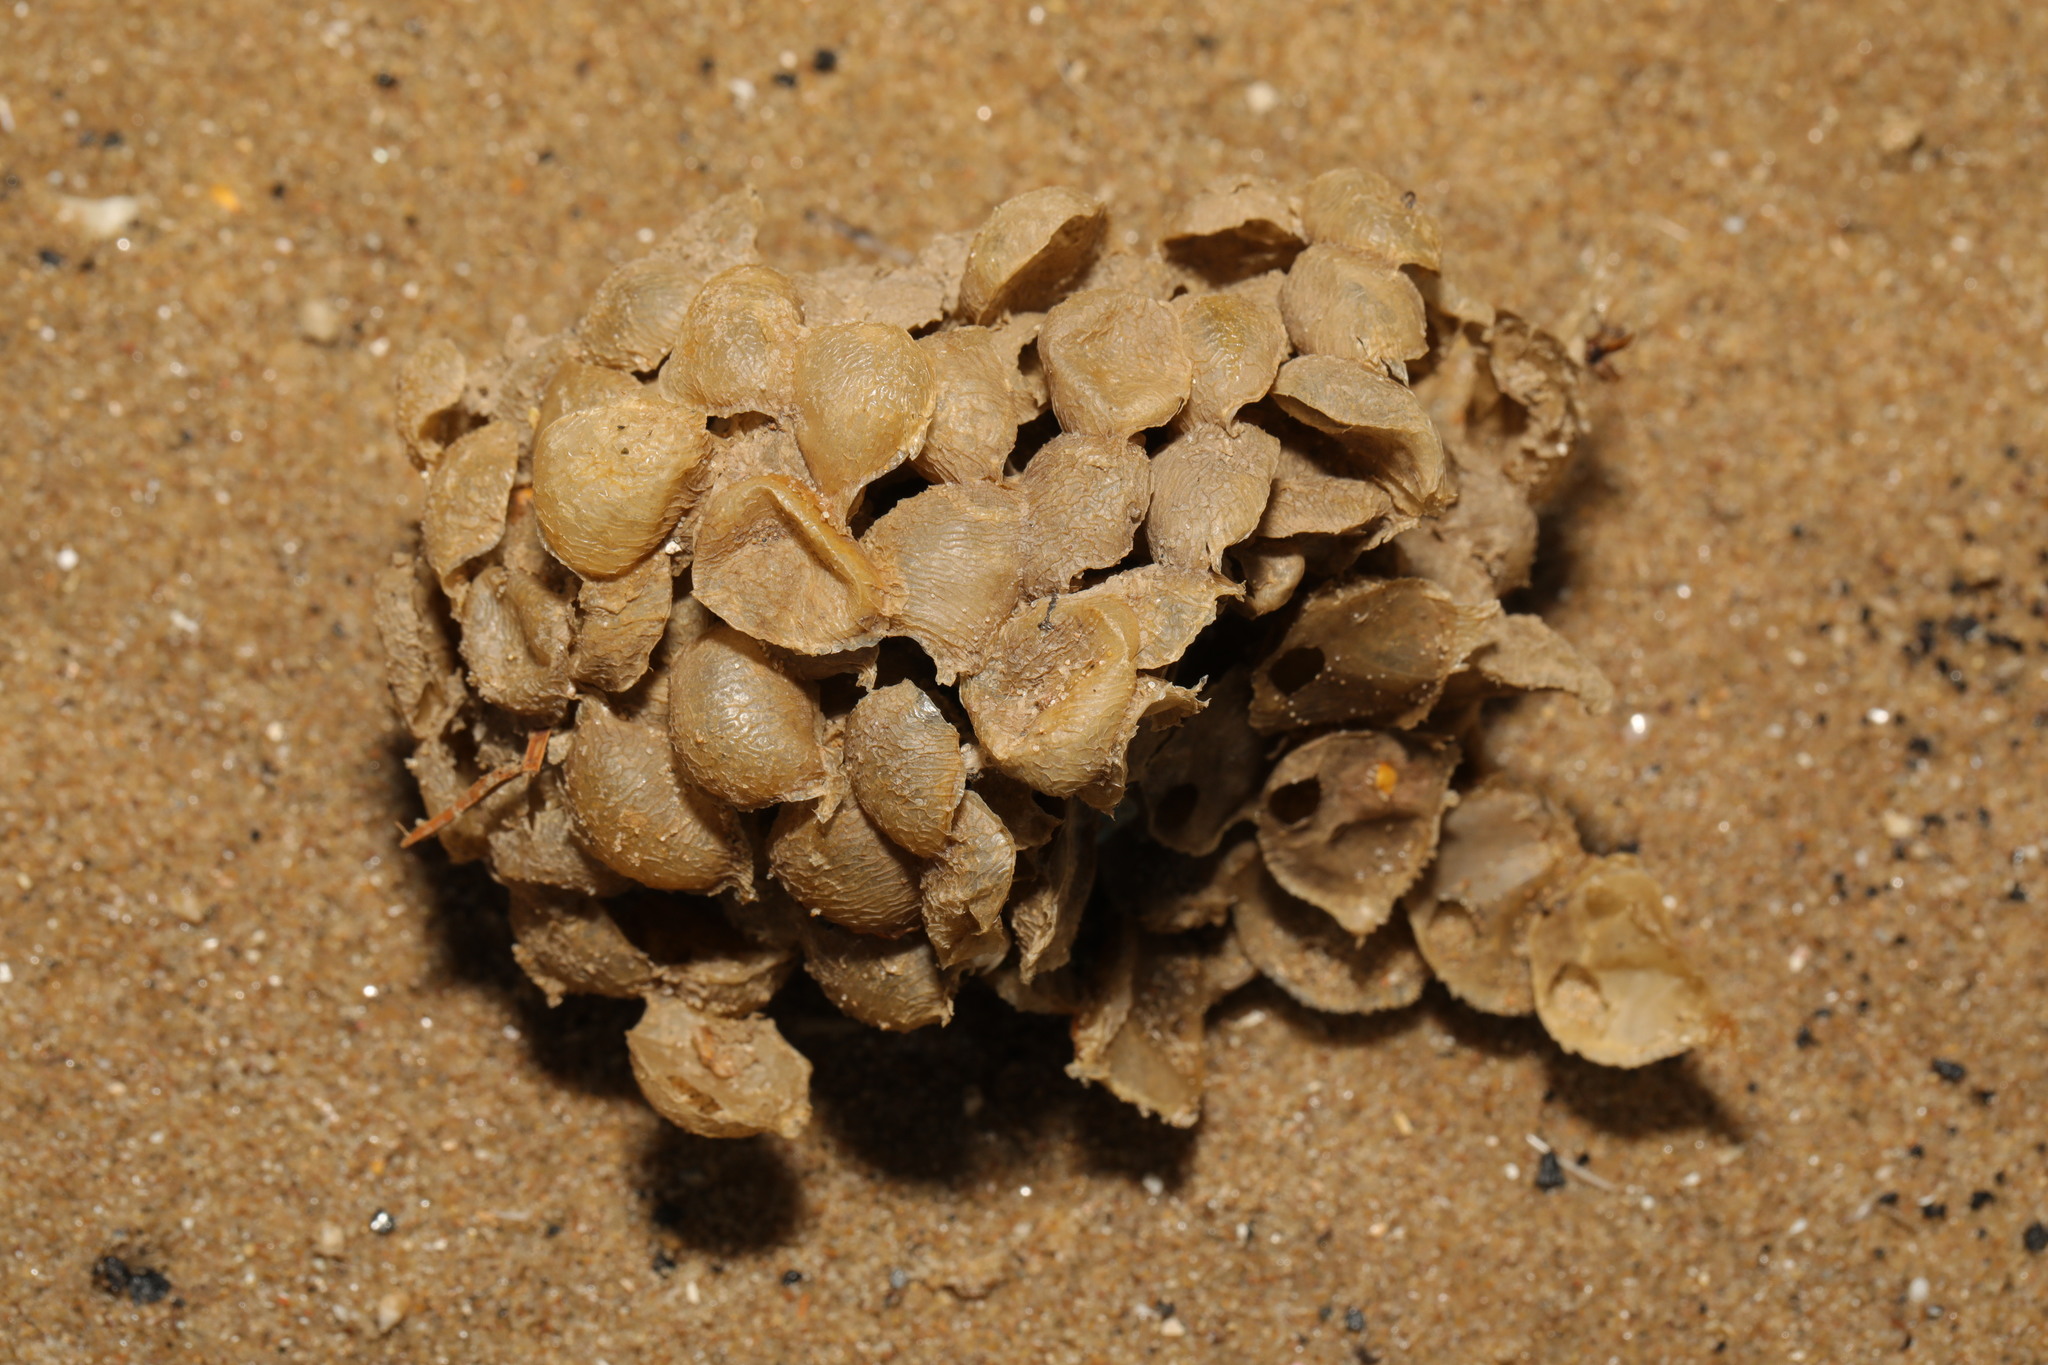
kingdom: Animalia
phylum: Mollusca
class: Gastropoda
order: Neogastropoda
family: Buccinidae
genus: Buccinum
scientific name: Buccinum undatum
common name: Common whelk
